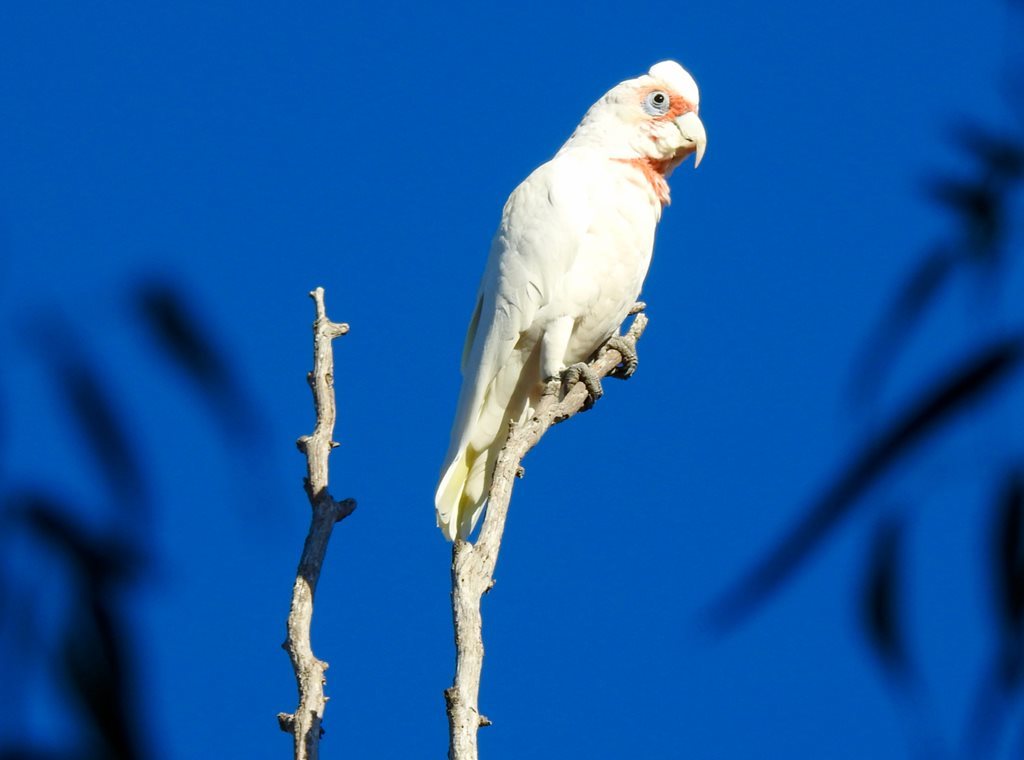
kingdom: Animalia
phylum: Chordata
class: Aves
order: Psittaciformes
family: Psittacidae
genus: Cacatua
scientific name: Cacatua tenuirostris
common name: Long-billed corella
